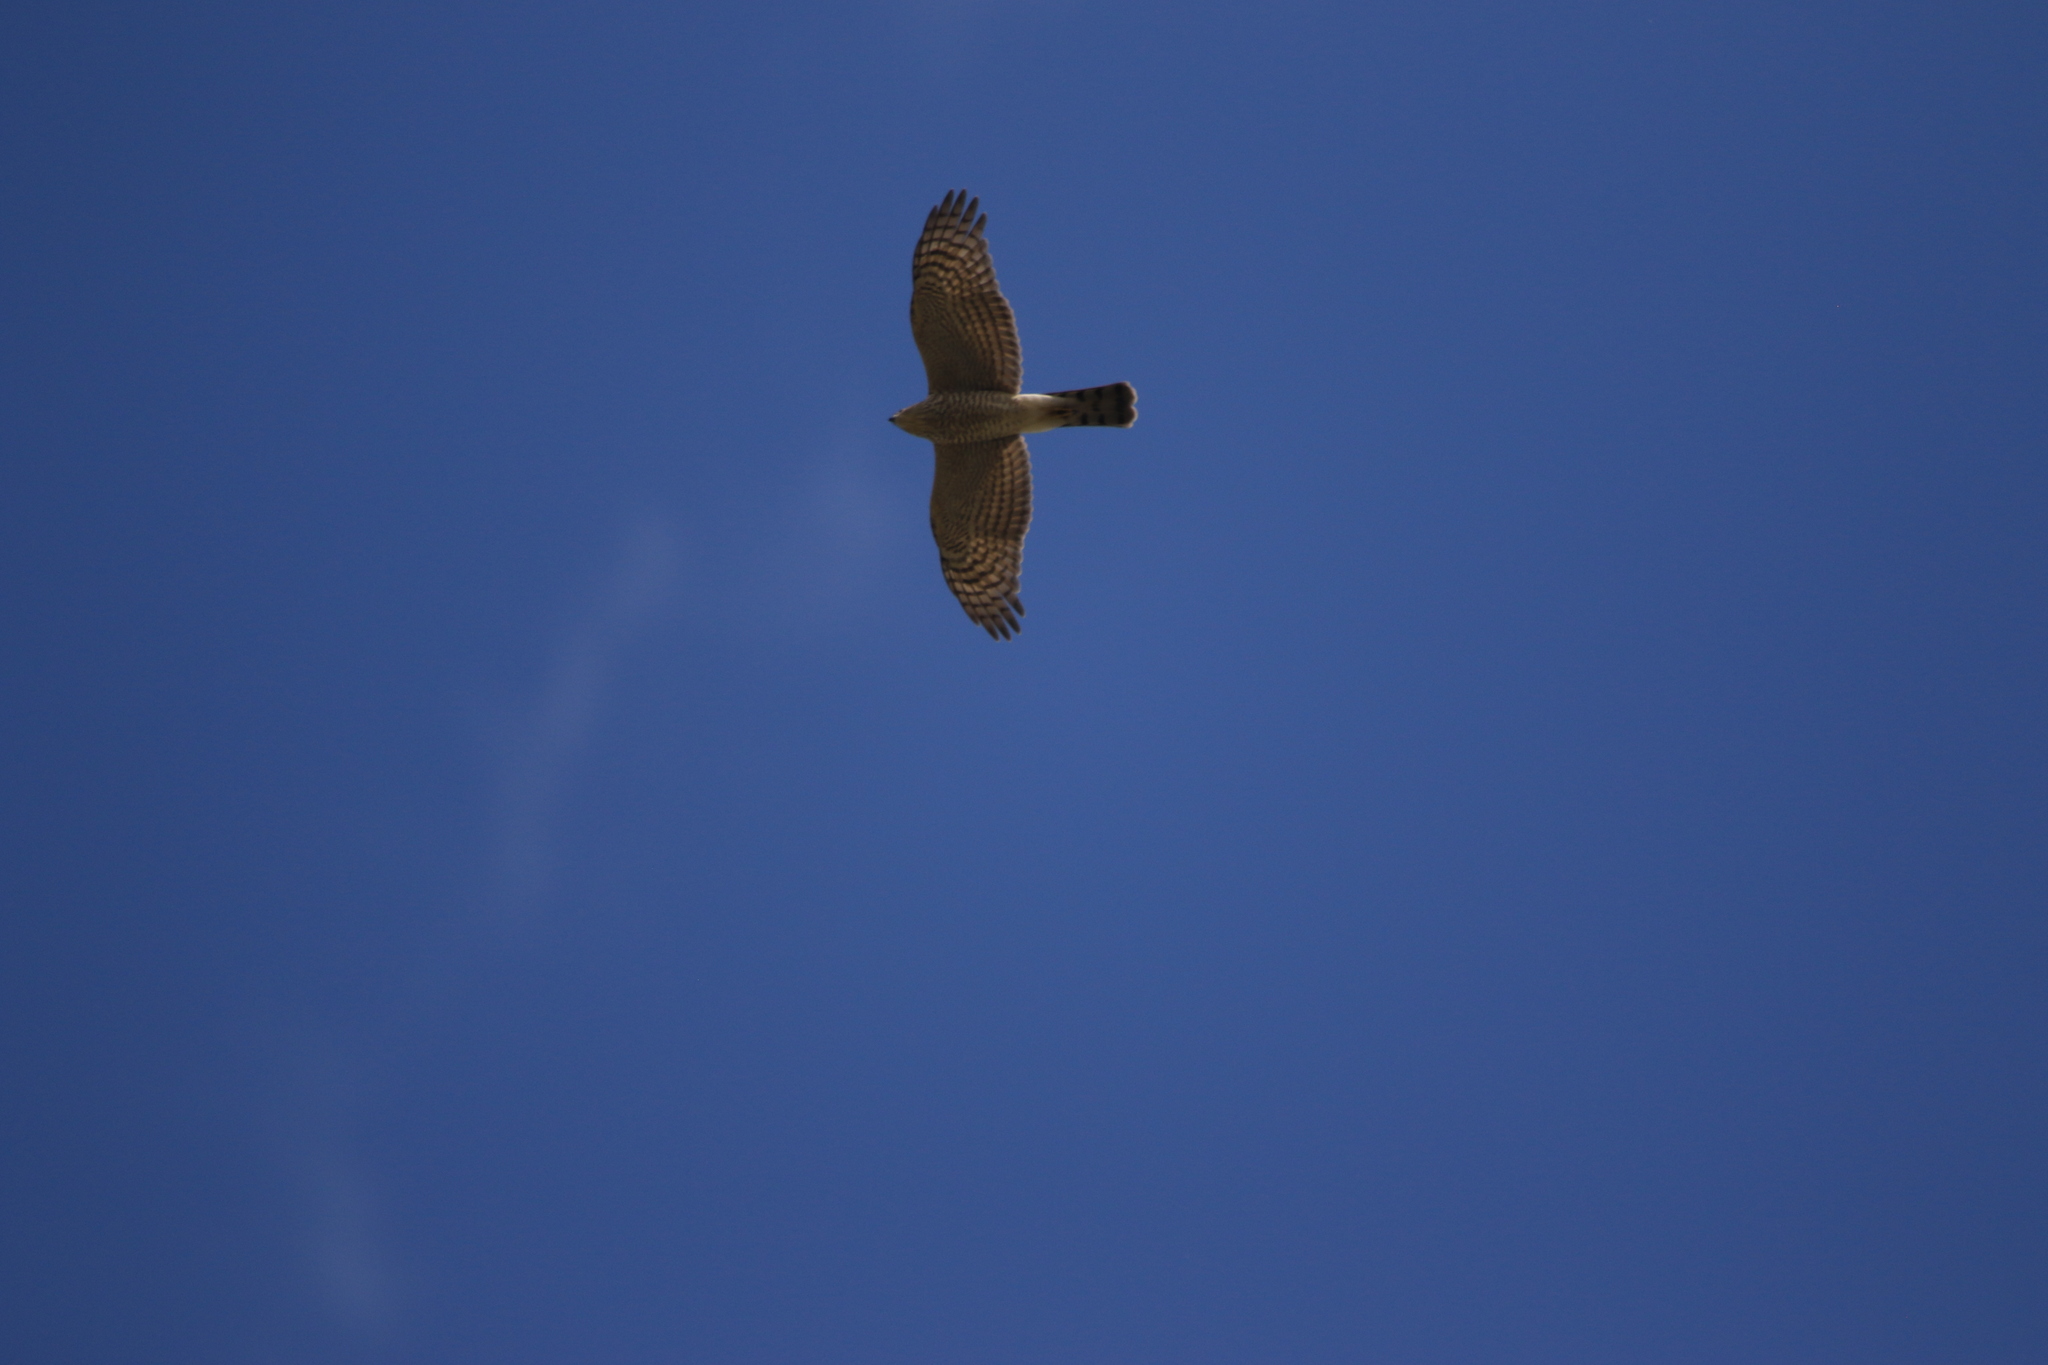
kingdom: Animalia
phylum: Chordata
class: Aves
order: Accipitriformes
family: Accipitridae
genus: Accipiter
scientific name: Accipiter nisus
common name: Eurasian sparrowhawk
